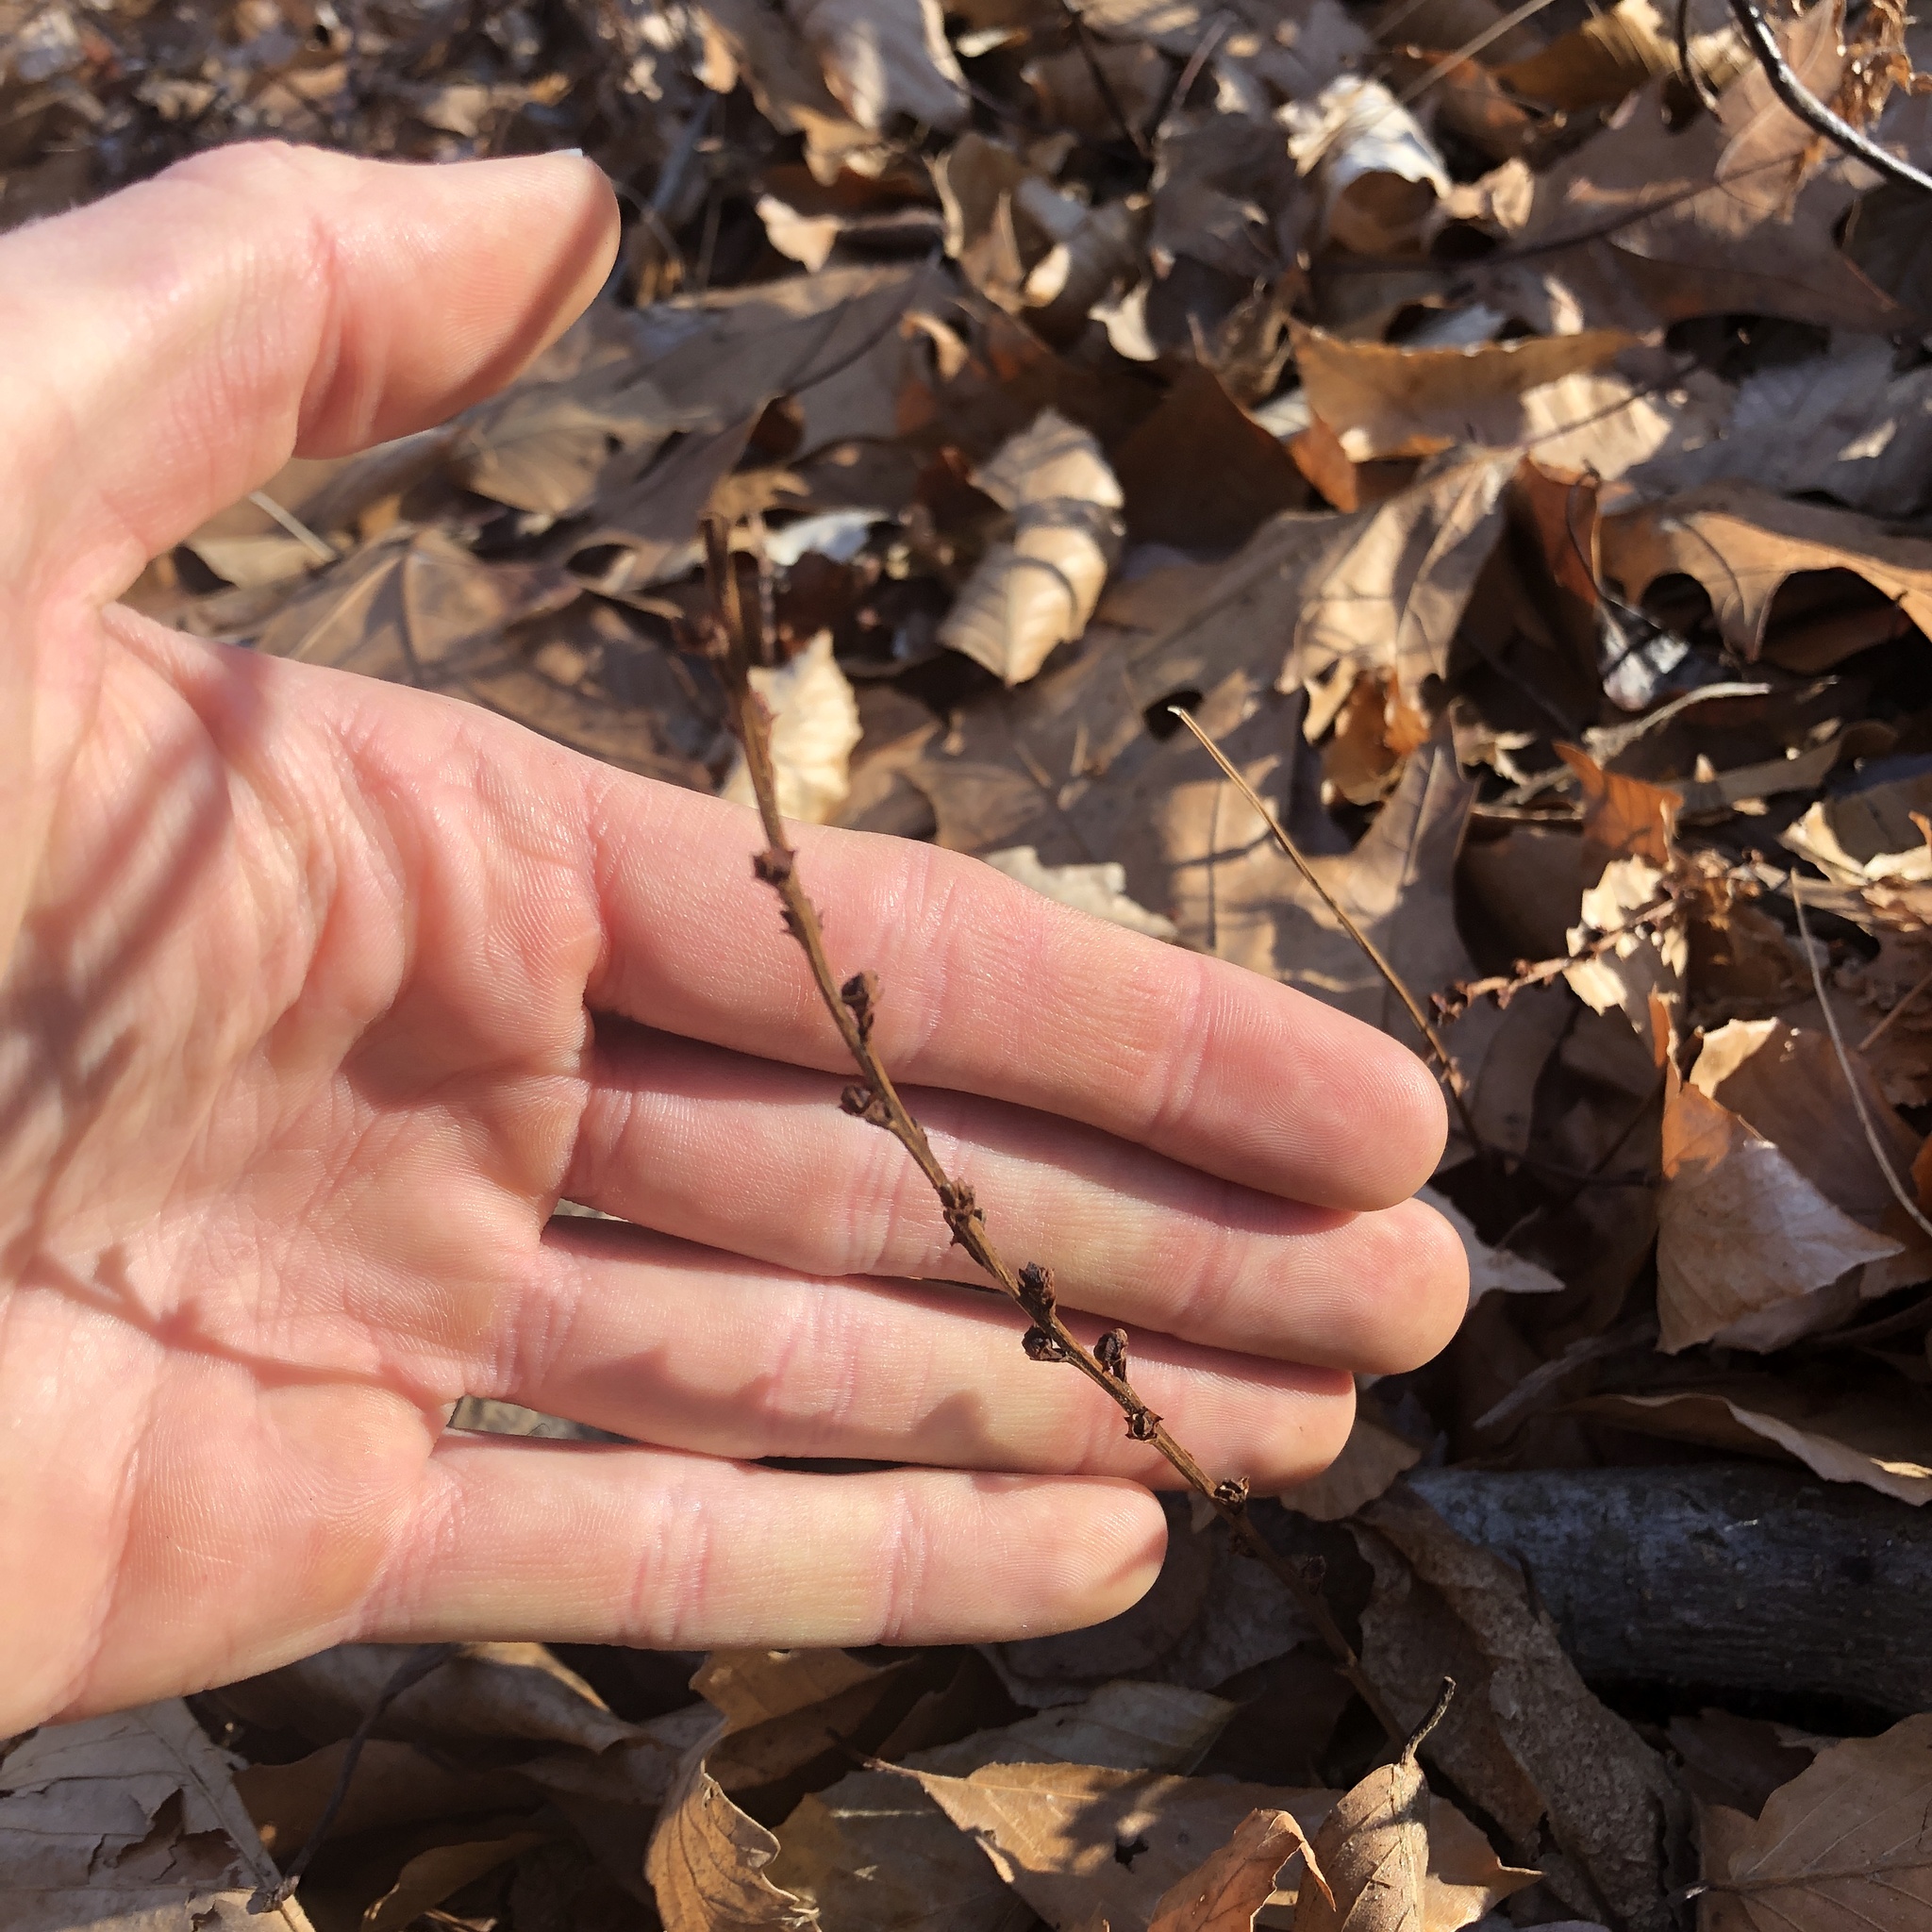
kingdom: Plantae
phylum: Tracheophyta
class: Magnoliopsida
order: Lamiales
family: Orobanchaceae
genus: Epifagus
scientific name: Epifagus virginiana
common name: Beechdrops
